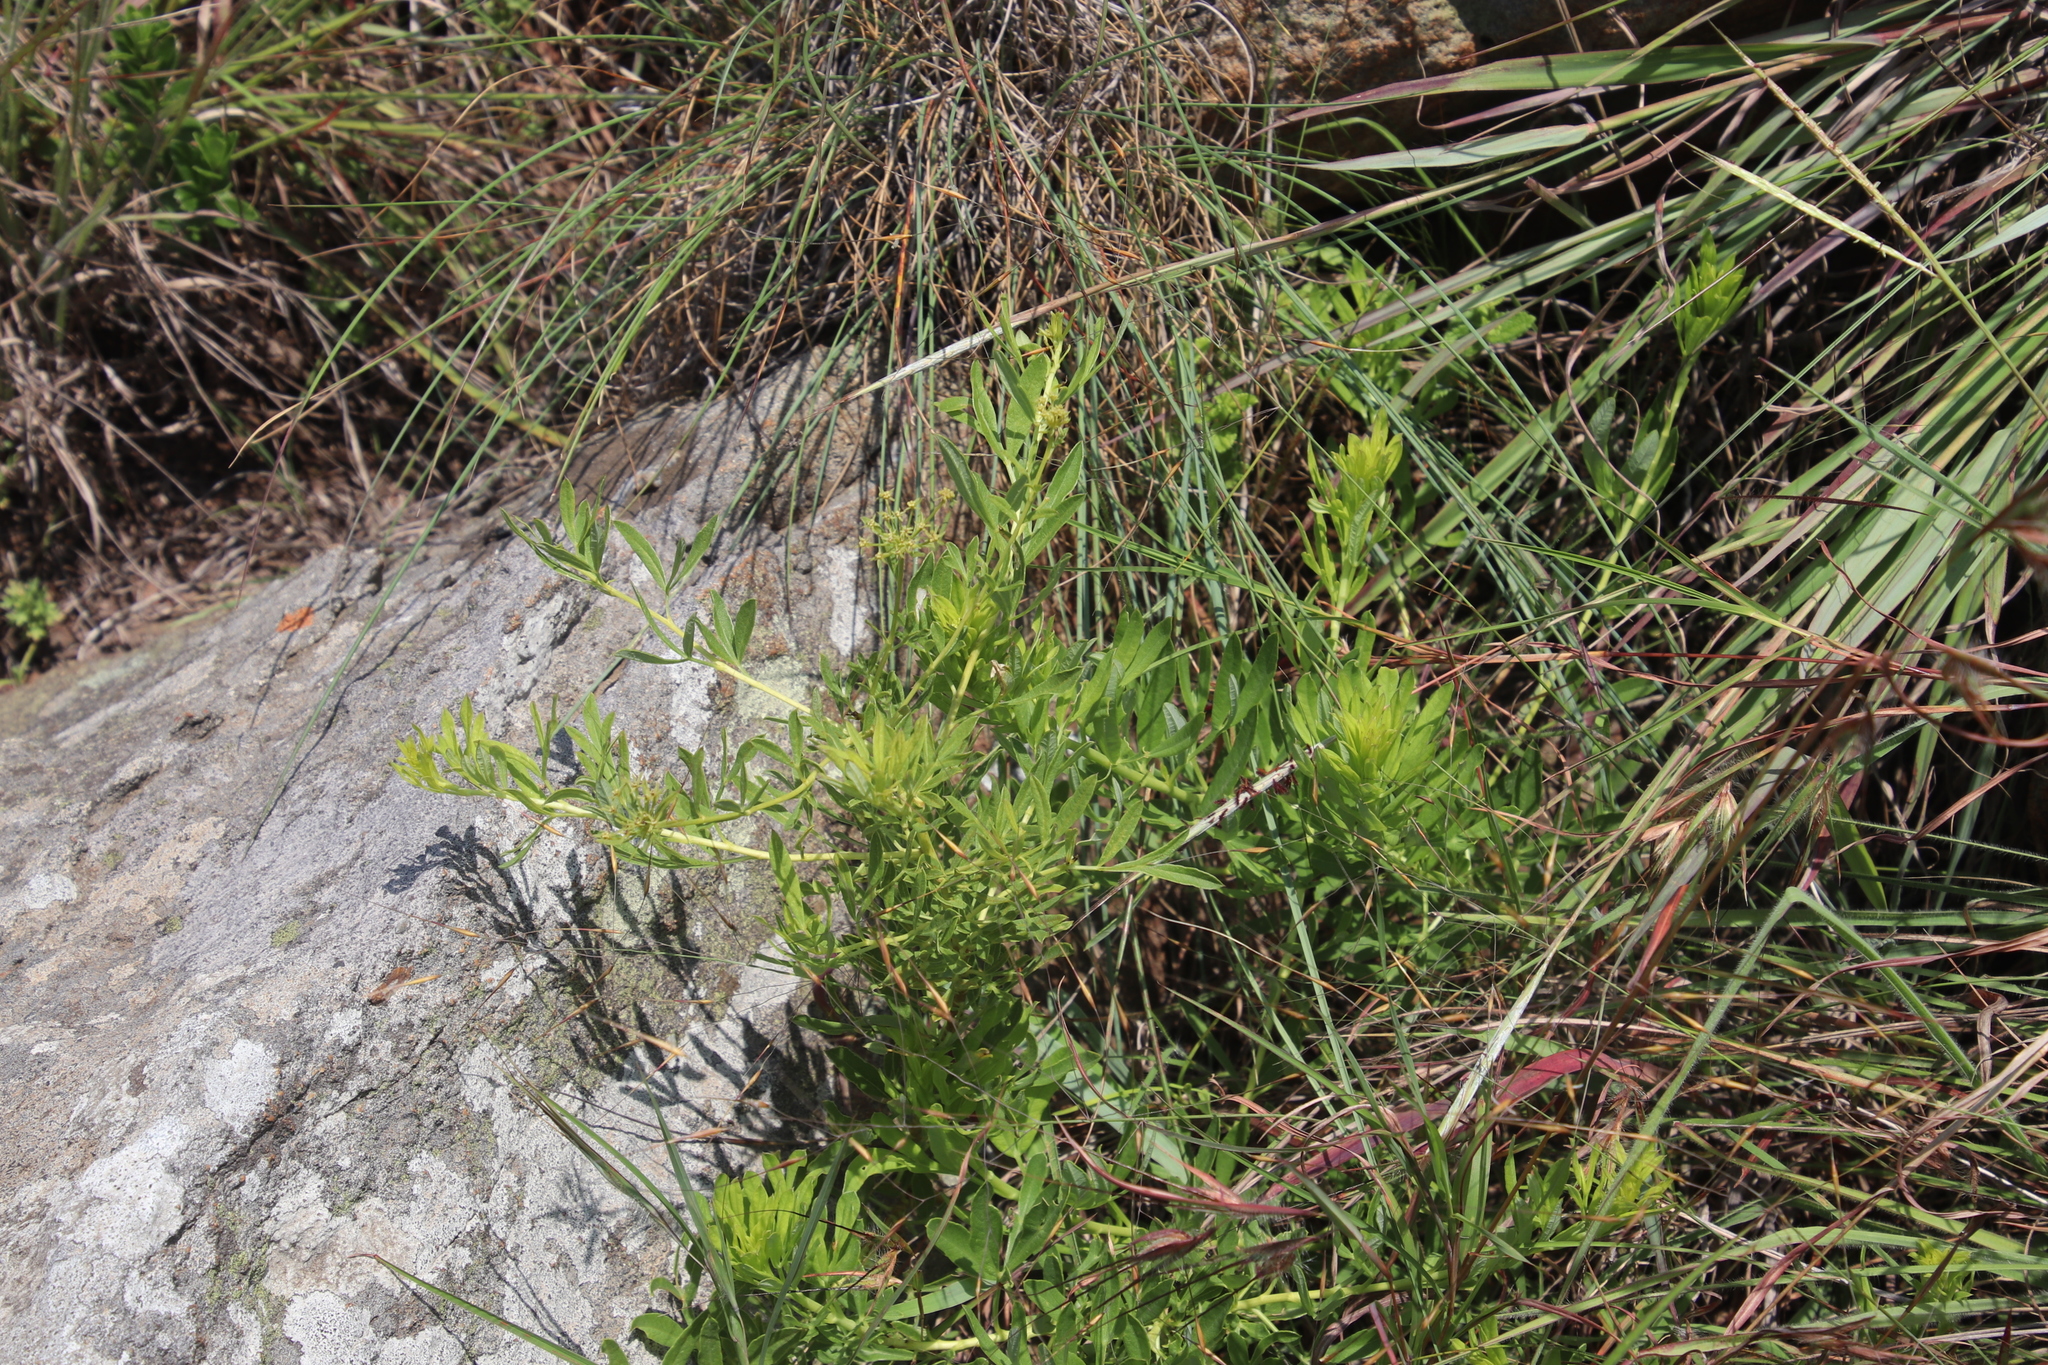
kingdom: Plantae
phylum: Tracheophyta
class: Magnoliopsida
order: Apiales
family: Apiaceae
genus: Heteromorpha
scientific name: Heteromorpha involucrata
